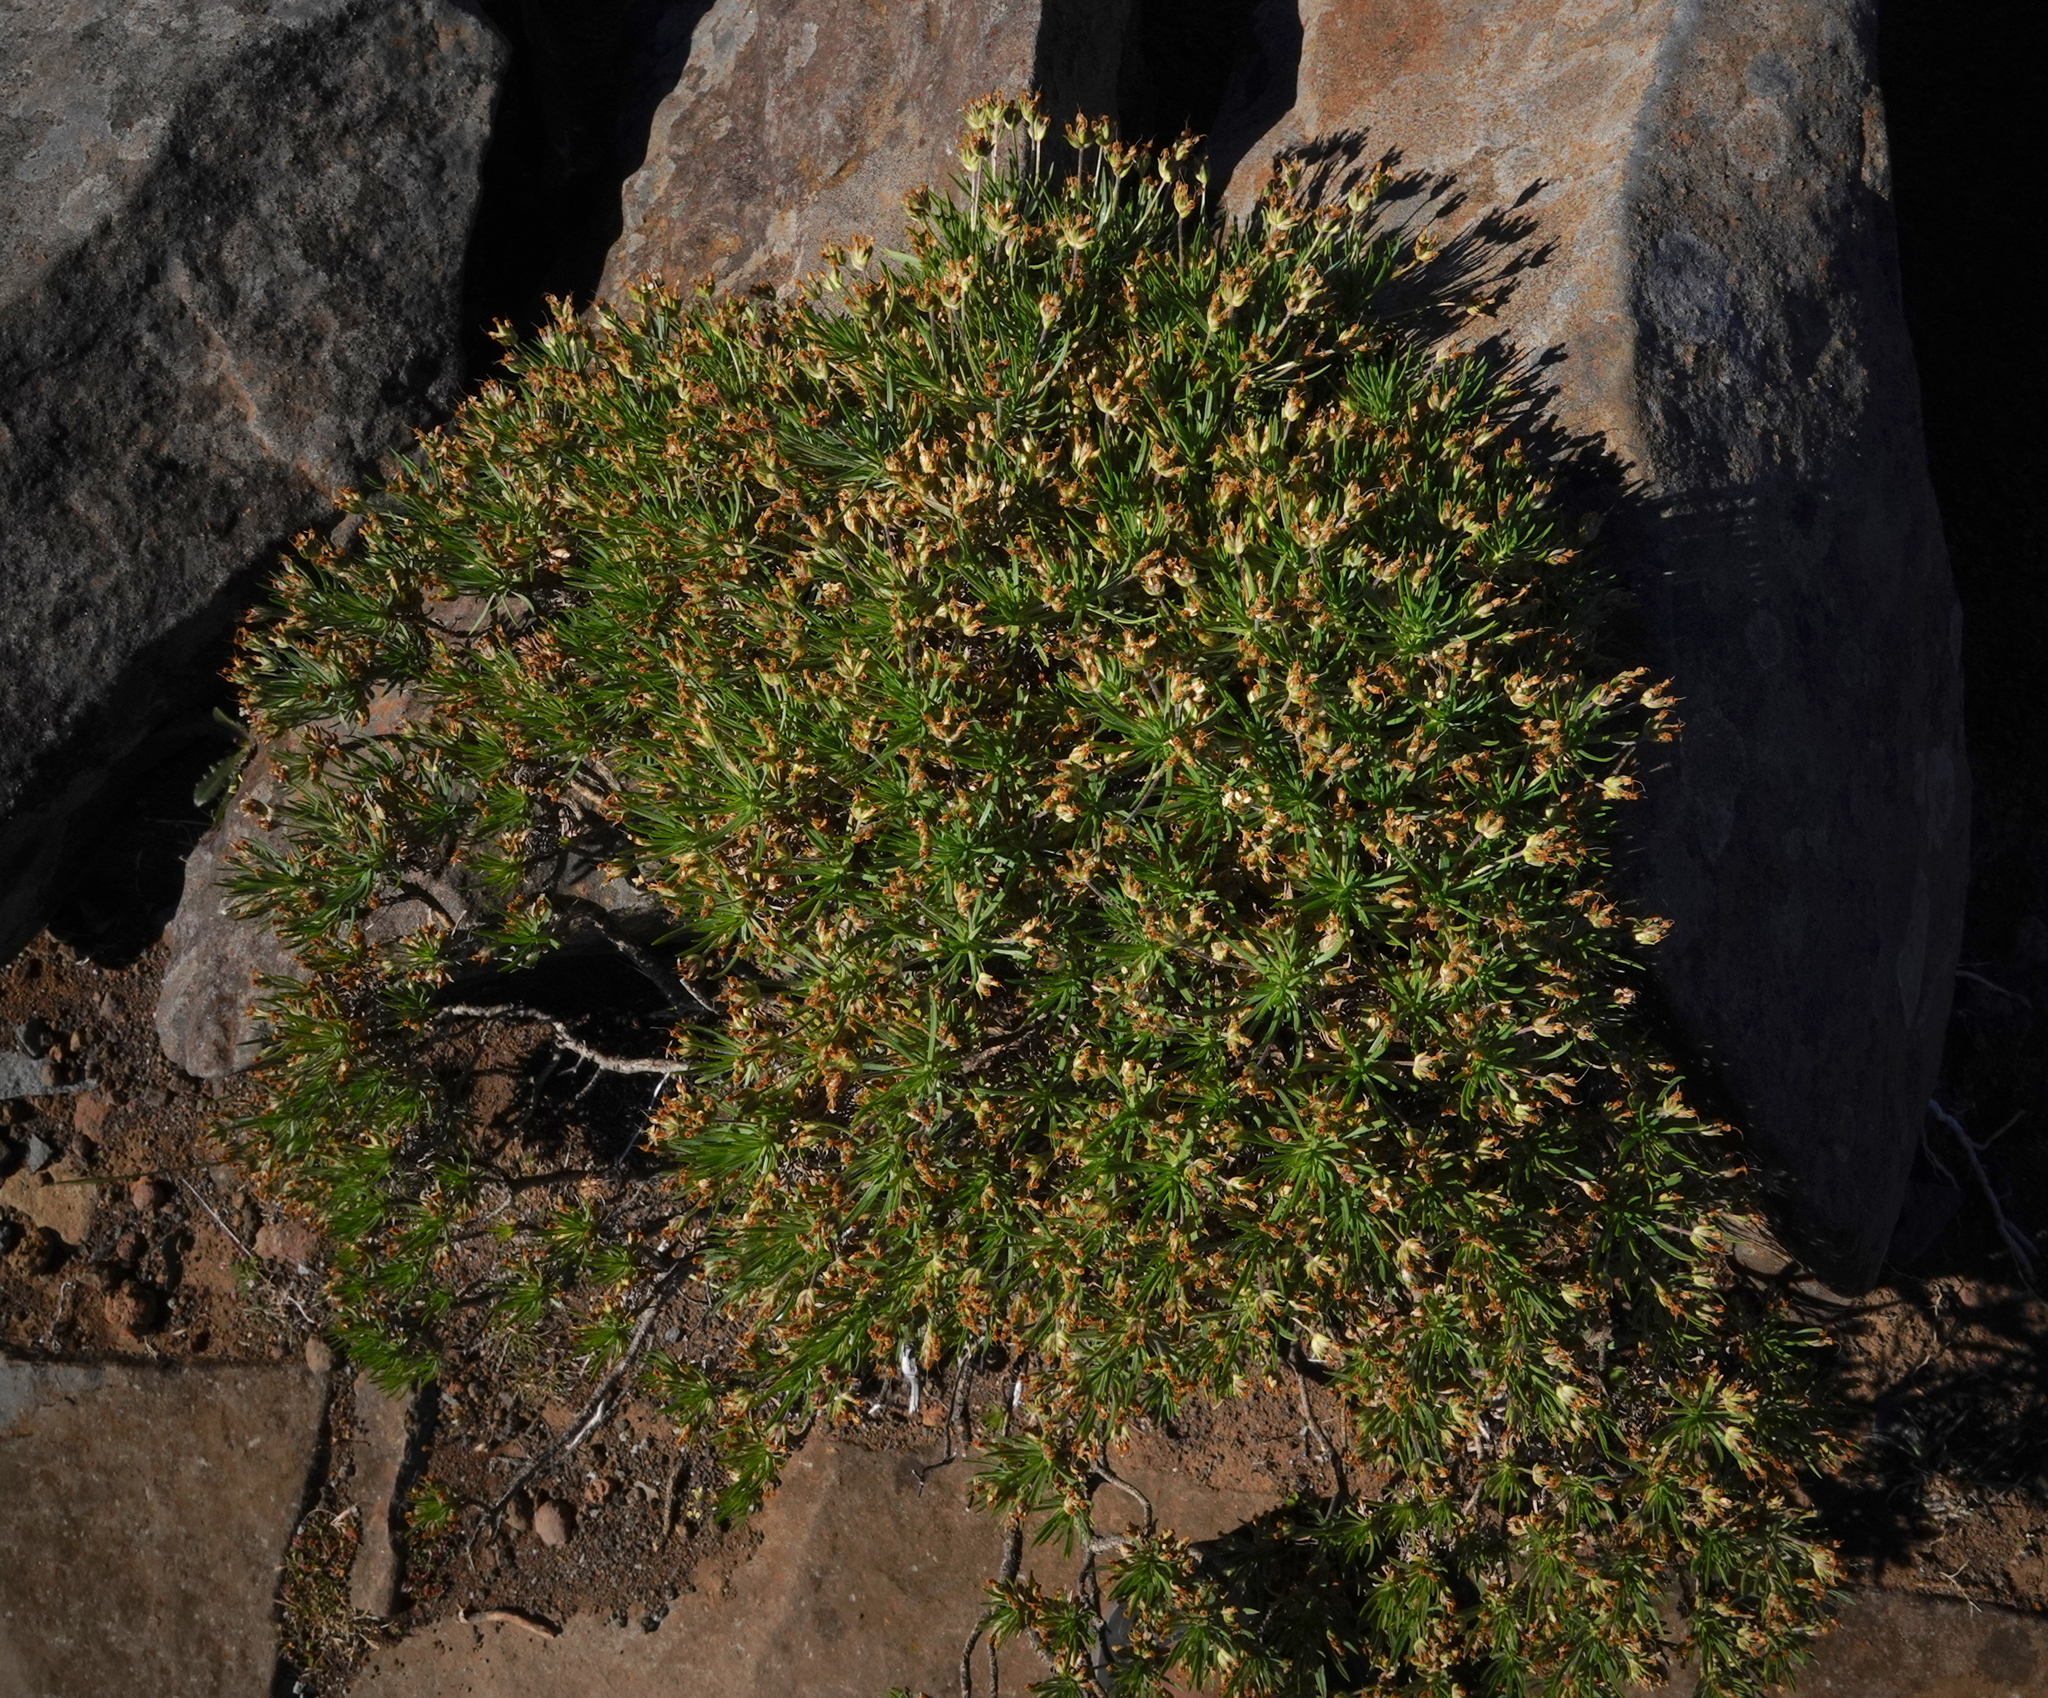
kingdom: Plantae
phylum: Tracheophyta
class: Magnoliopsida
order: Lamiales
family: Plantaginaceae
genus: Plantago
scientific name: Plantago arborescens
